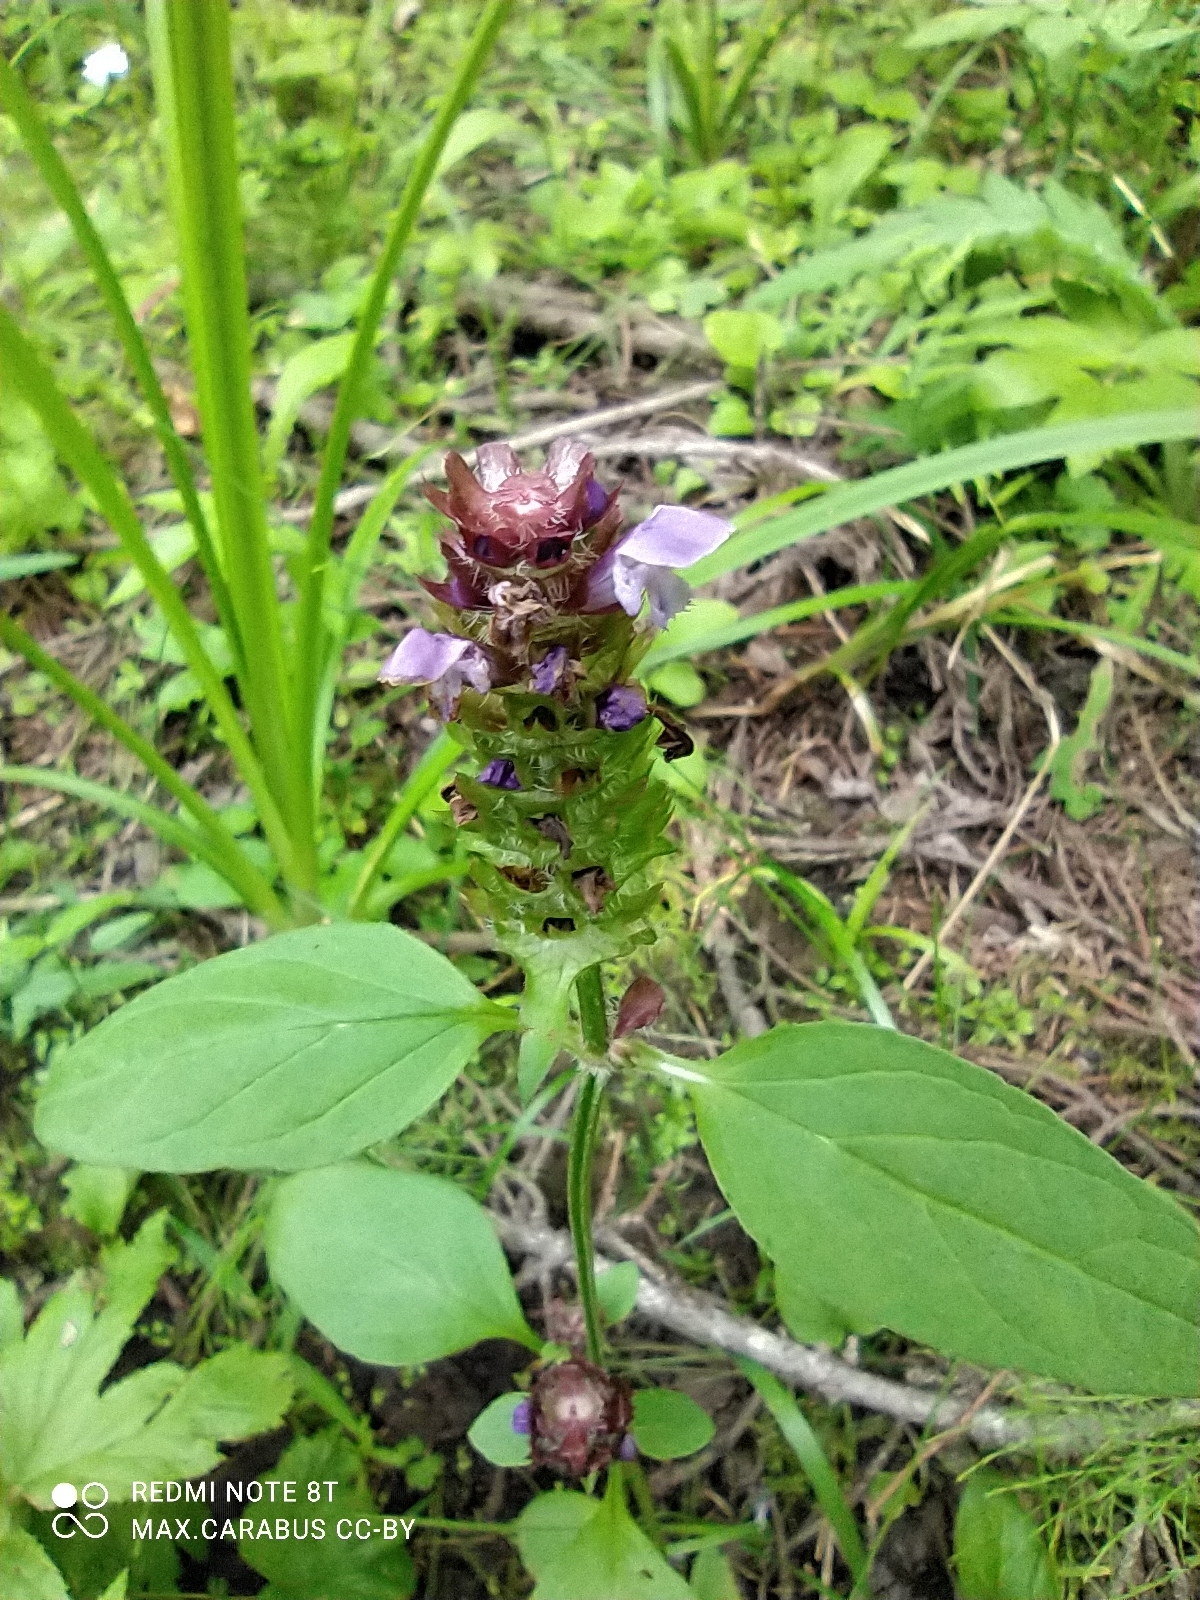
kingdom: Plantae
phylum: Tracheophyta
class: Magnoliopsida
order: Lamiales
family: Lamiaceae
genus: Prunella
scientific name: Prunella vulgaris
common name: Heal-all
